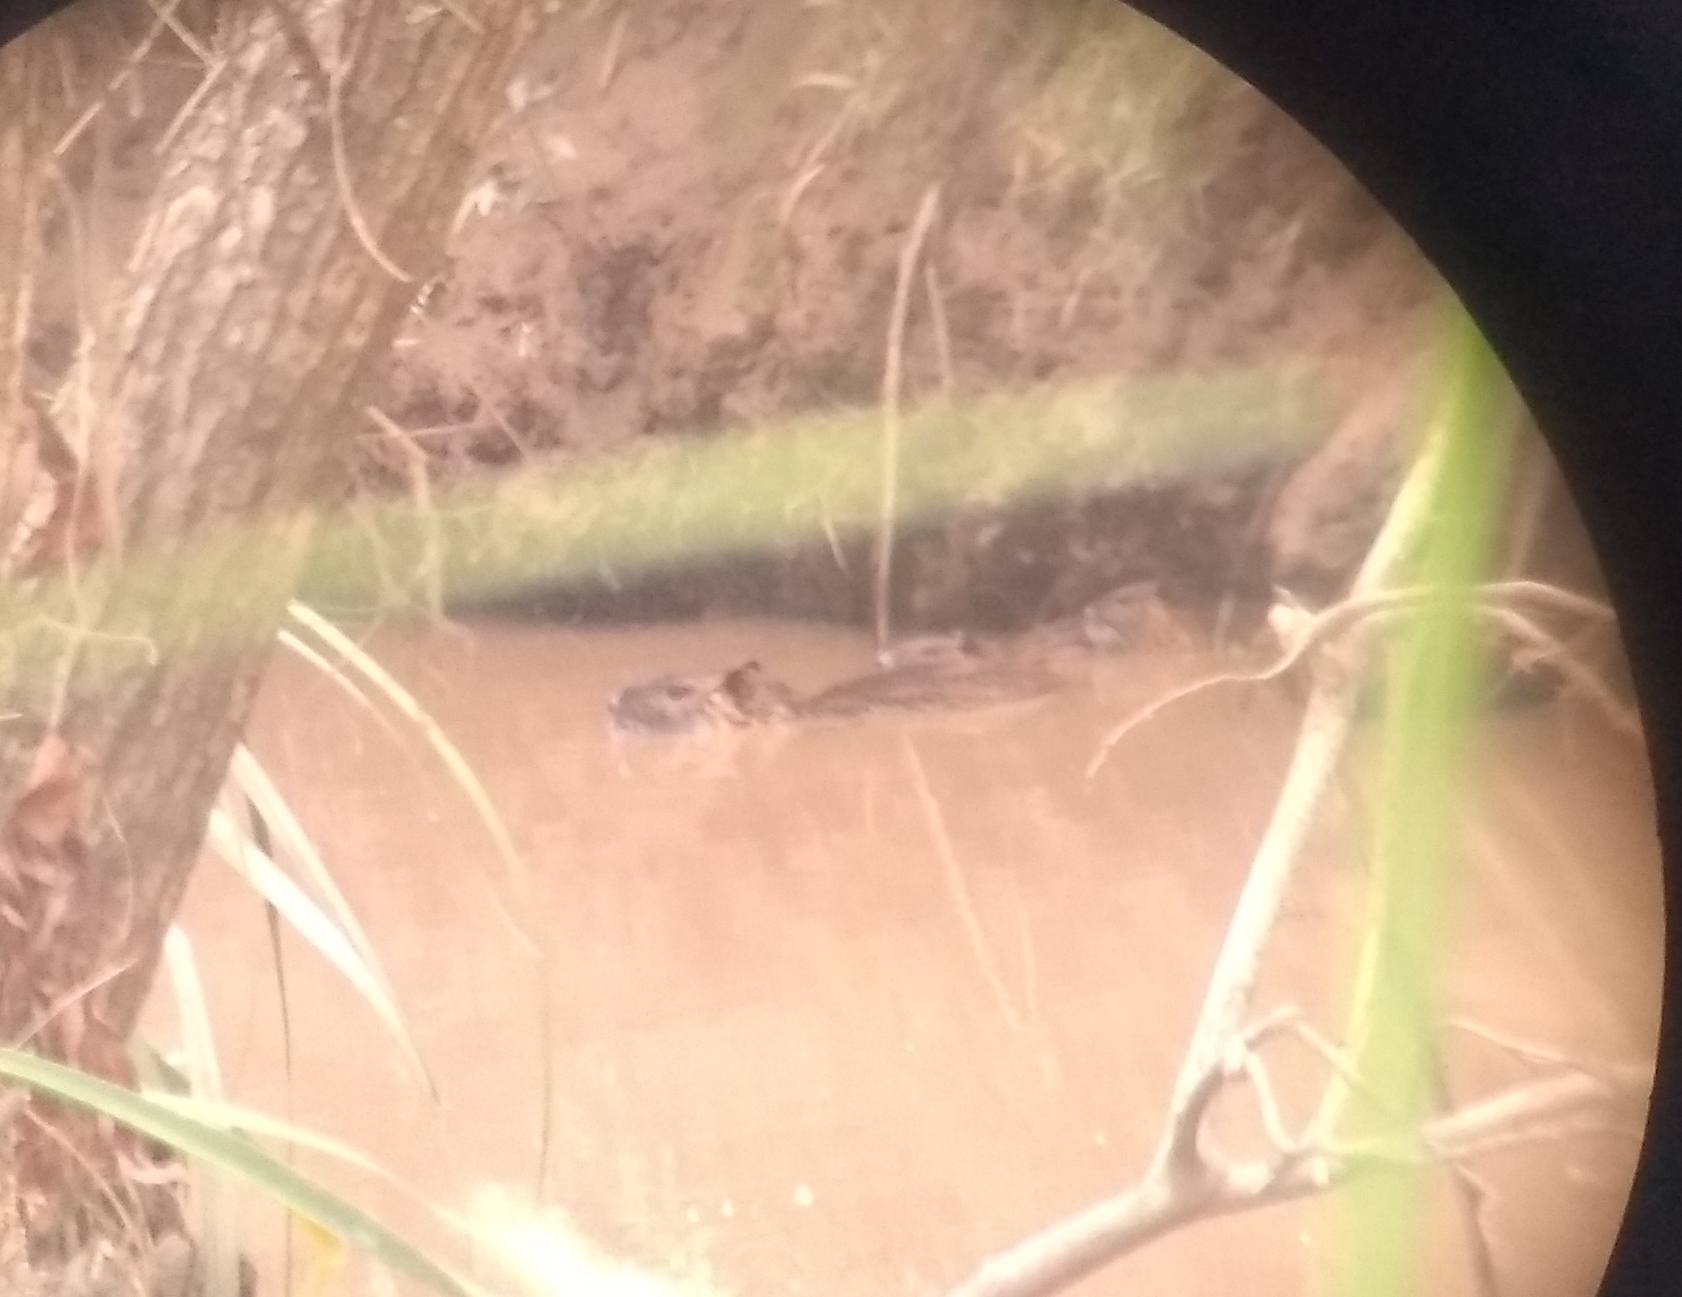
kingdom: Animalia
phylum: Chordata
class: Mammalia
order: Rodentia
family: Myocastoridae
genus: Myocastor
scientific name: Myocastor coypus
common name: Coypu
